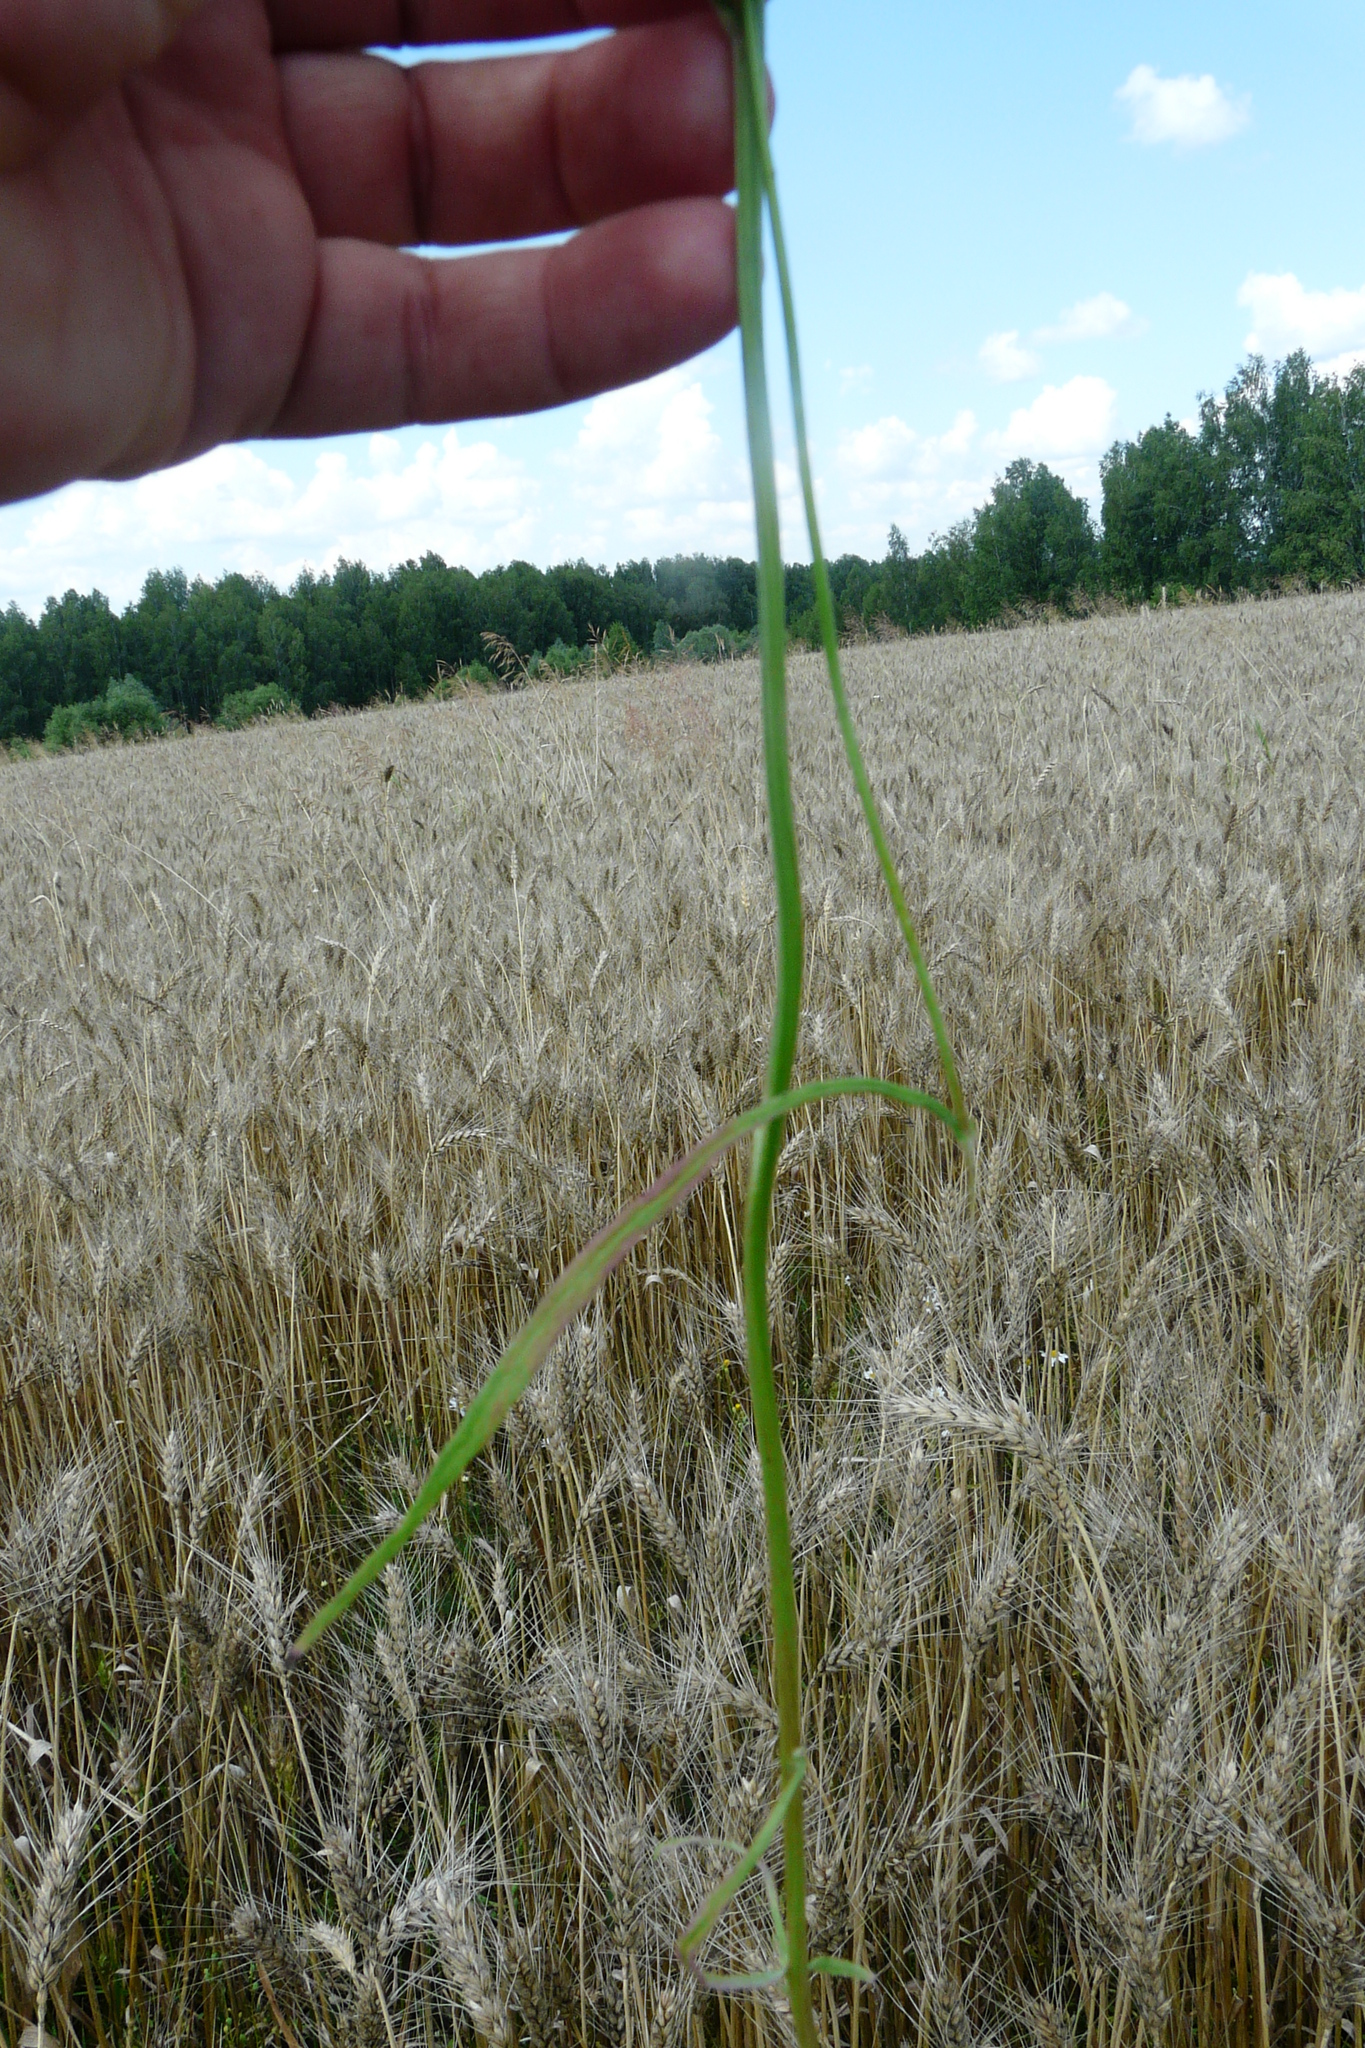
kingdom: Plantae
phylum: Tracheophyta
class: Magnoliopsida
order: Asterales
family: Asteraceae
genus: Crepis
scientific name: Crepis tectorum
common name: Narrow-leaved hawk's-beard
